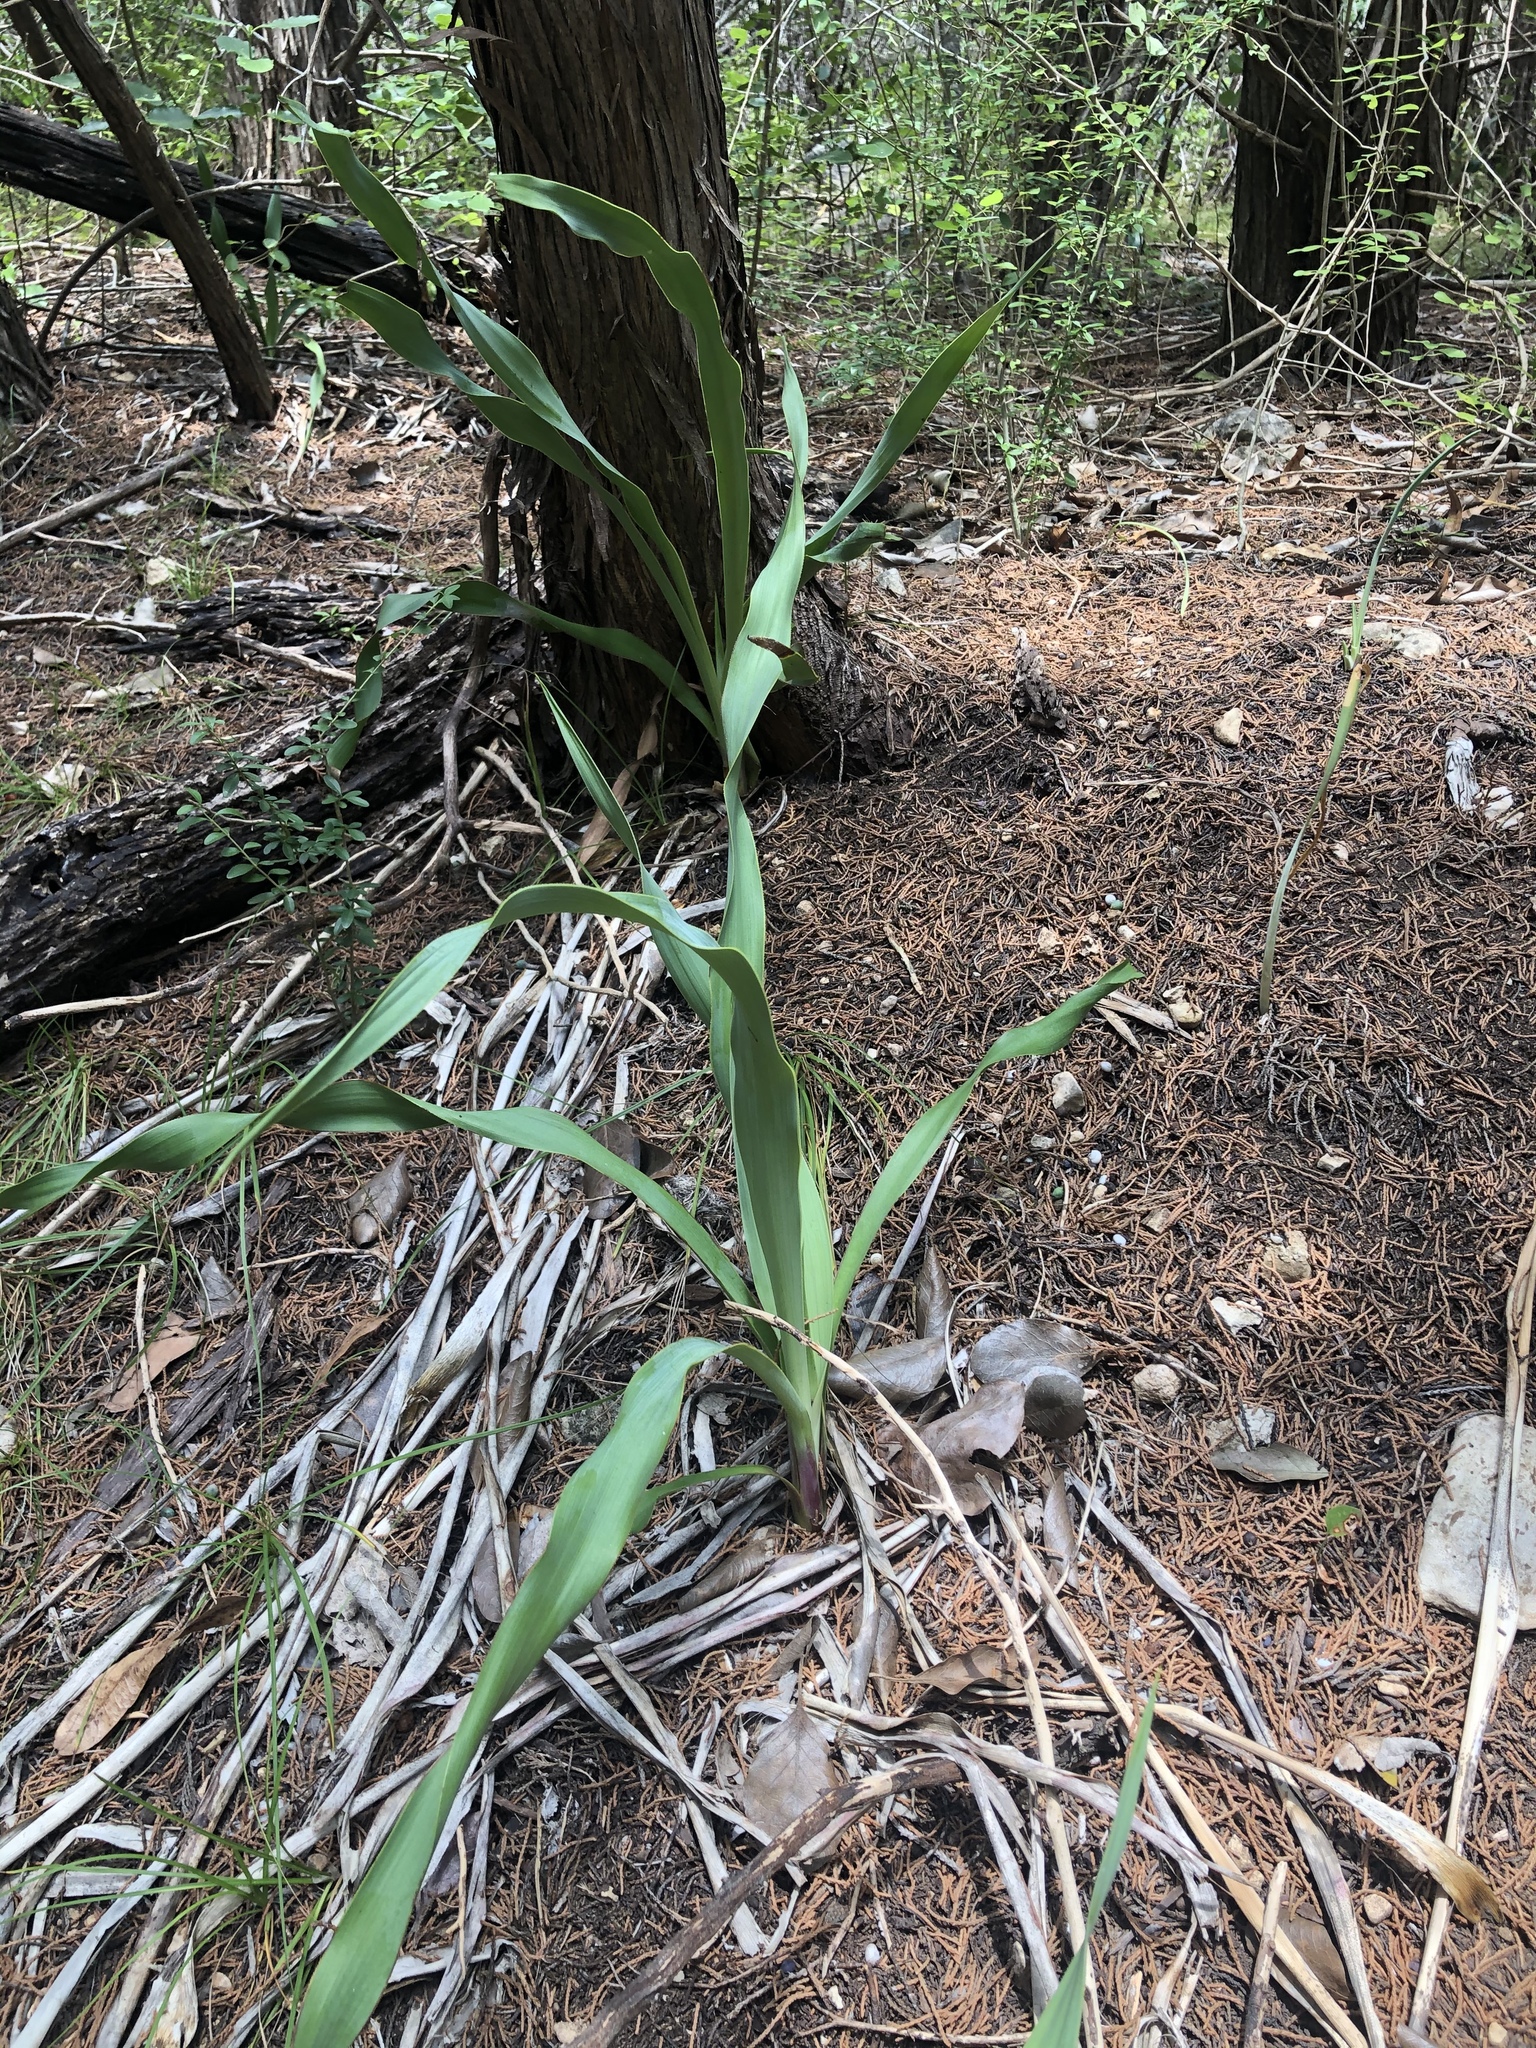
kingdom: Plantae
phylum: Tracheophyta
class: Liliopsida
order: Asparagales
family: Asparagaceae
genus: Yucca
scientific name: Yucca rupicola
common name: Twisted-leaf spanish-dagger
